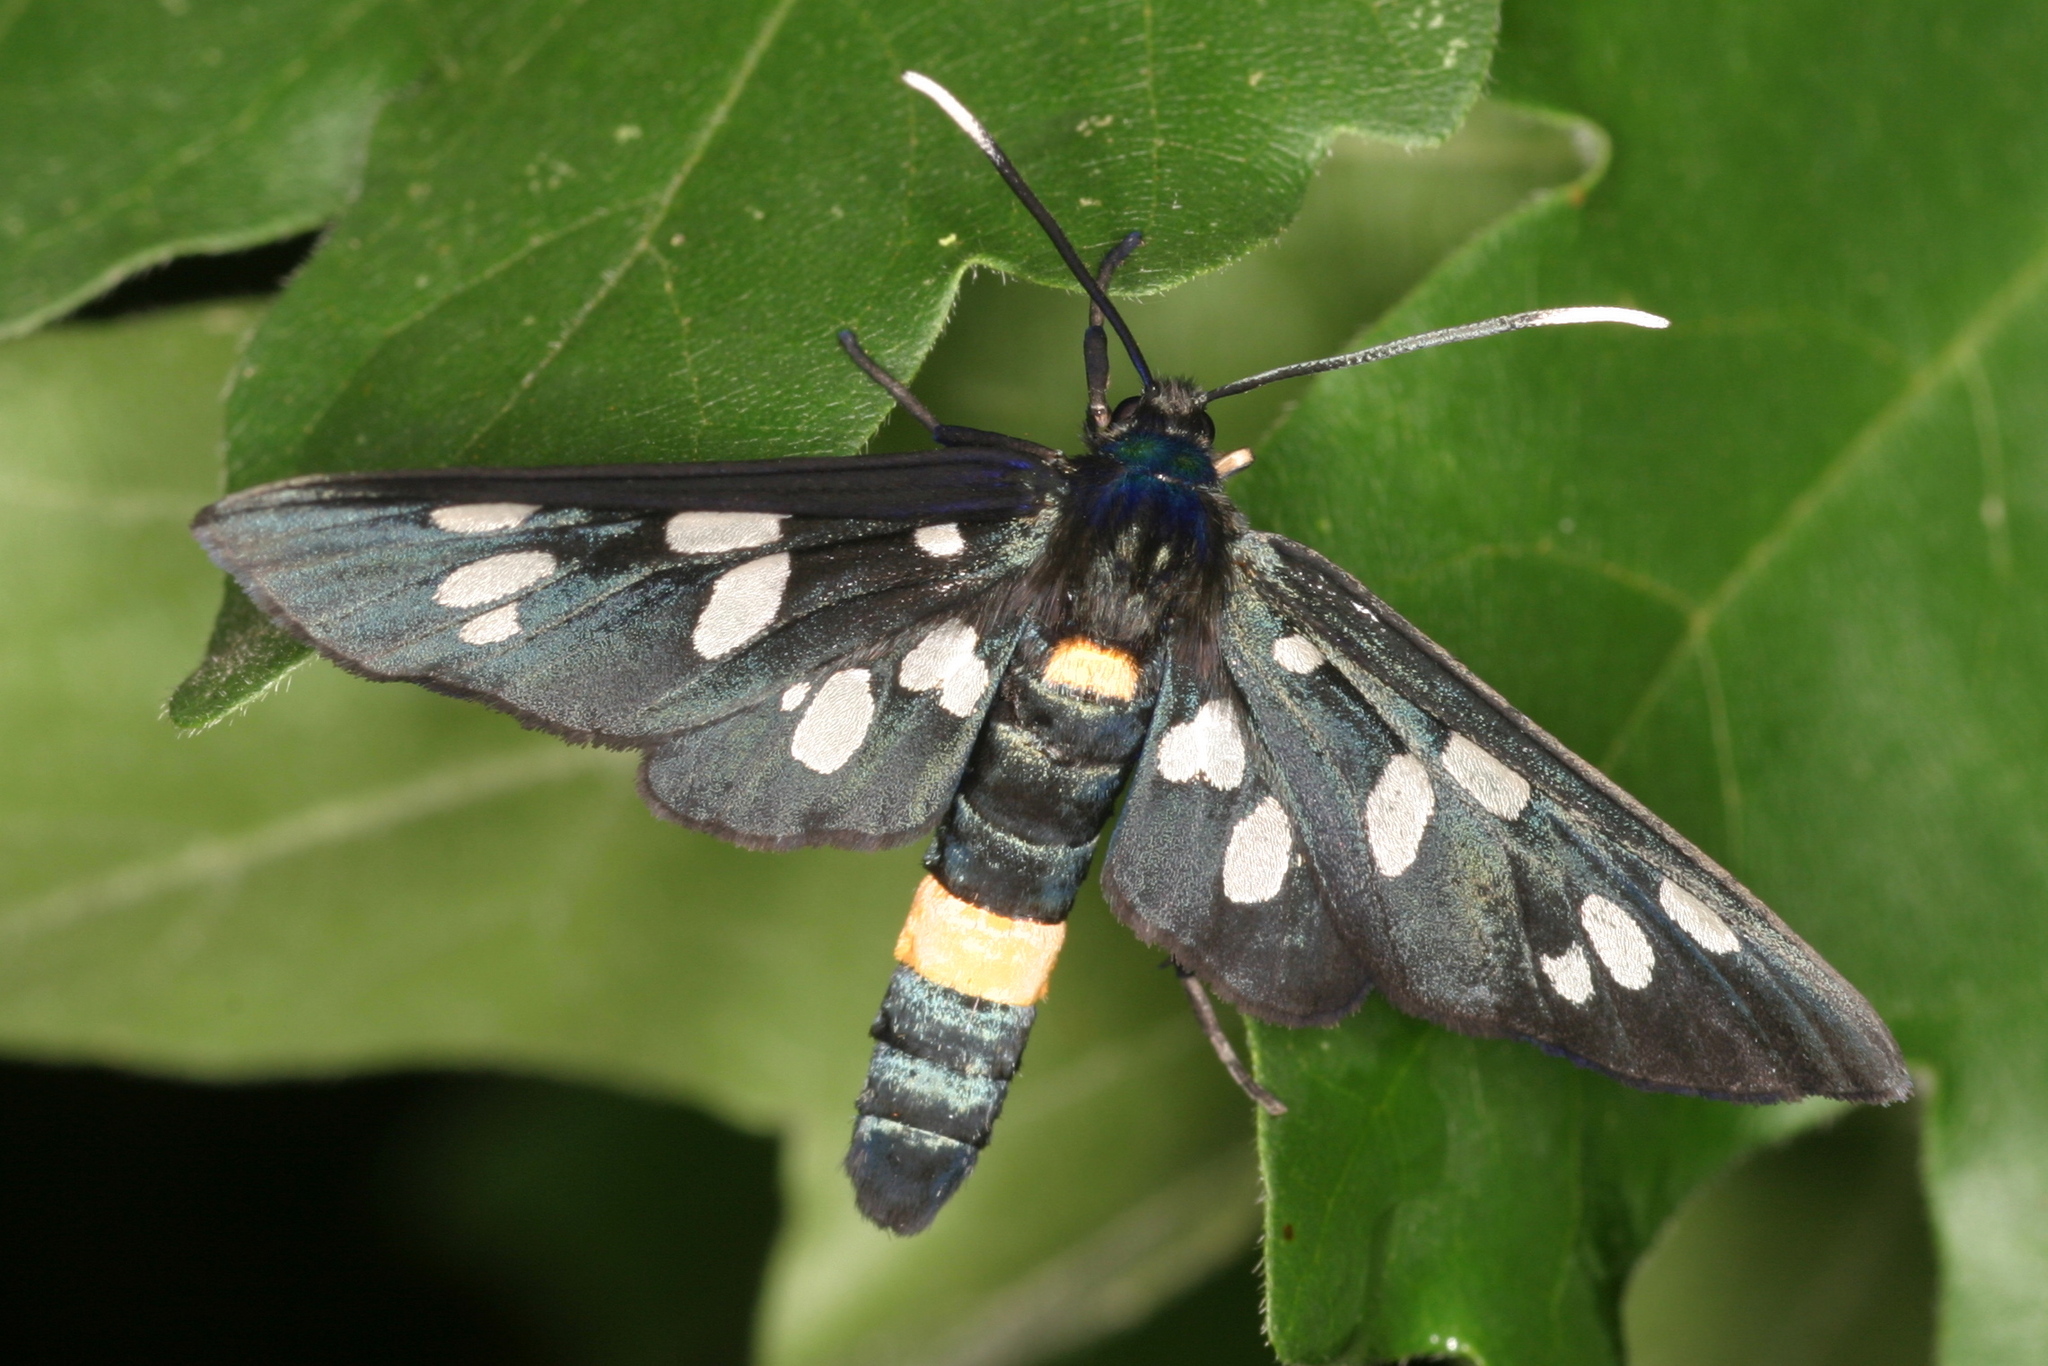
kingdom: Animalia
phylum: Arthropoda
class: Insecta
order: Lepidoptera
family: Erebidae
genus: Amata
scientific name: Amata phegea
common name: Nine-spotted
